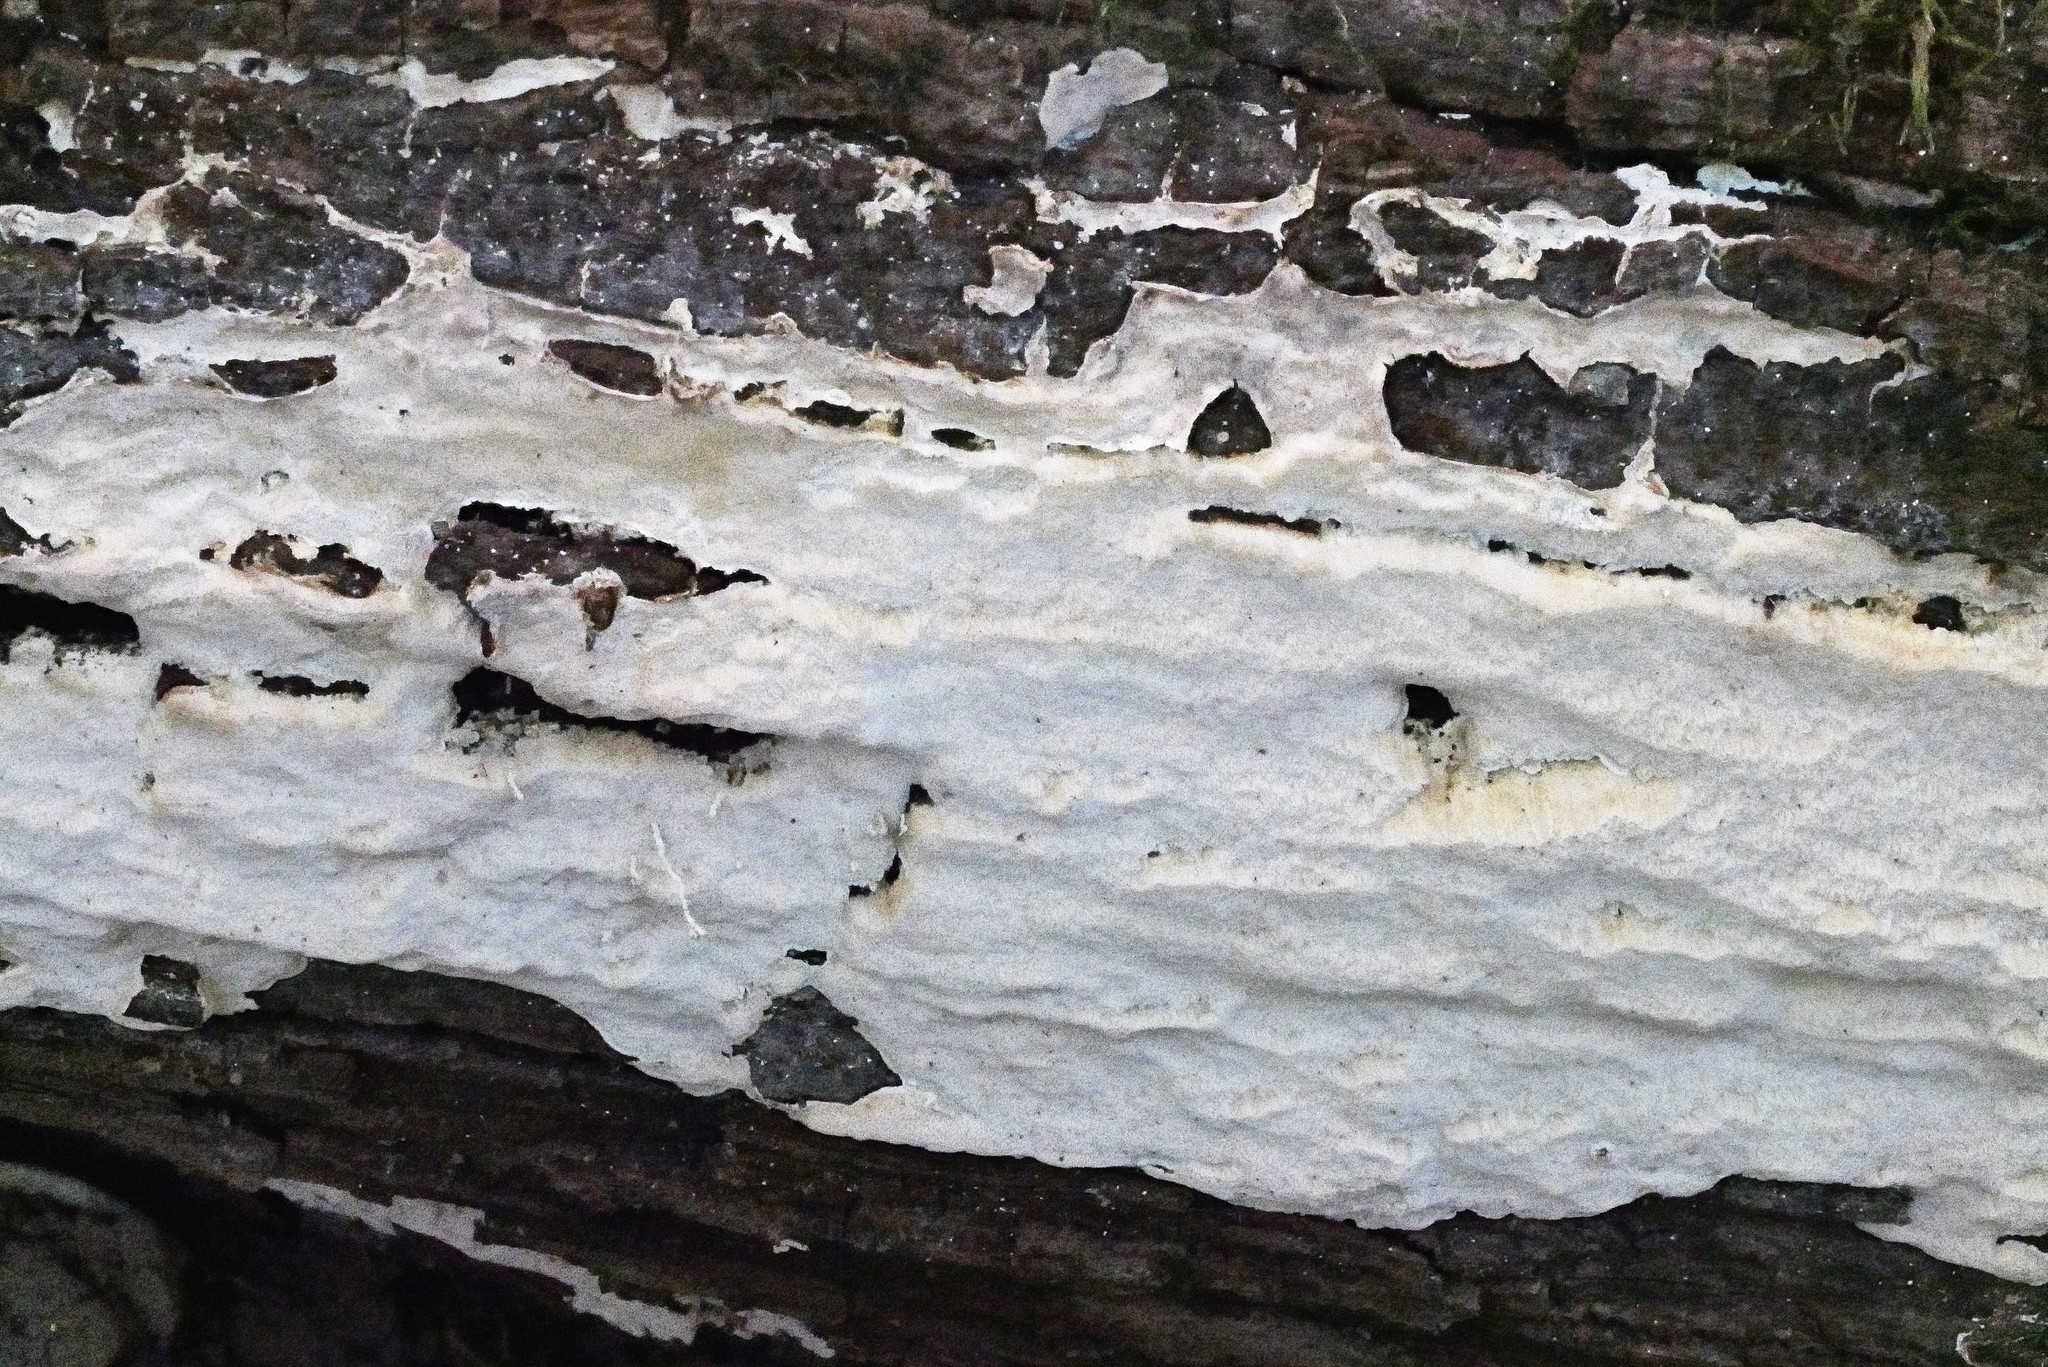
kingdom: Fungi
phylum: Basidiomycota
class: Agaricomycetes
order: Polyporales
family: Meripilaceae
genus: Rigidoporus
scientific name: Rigidoporus pouzarii
